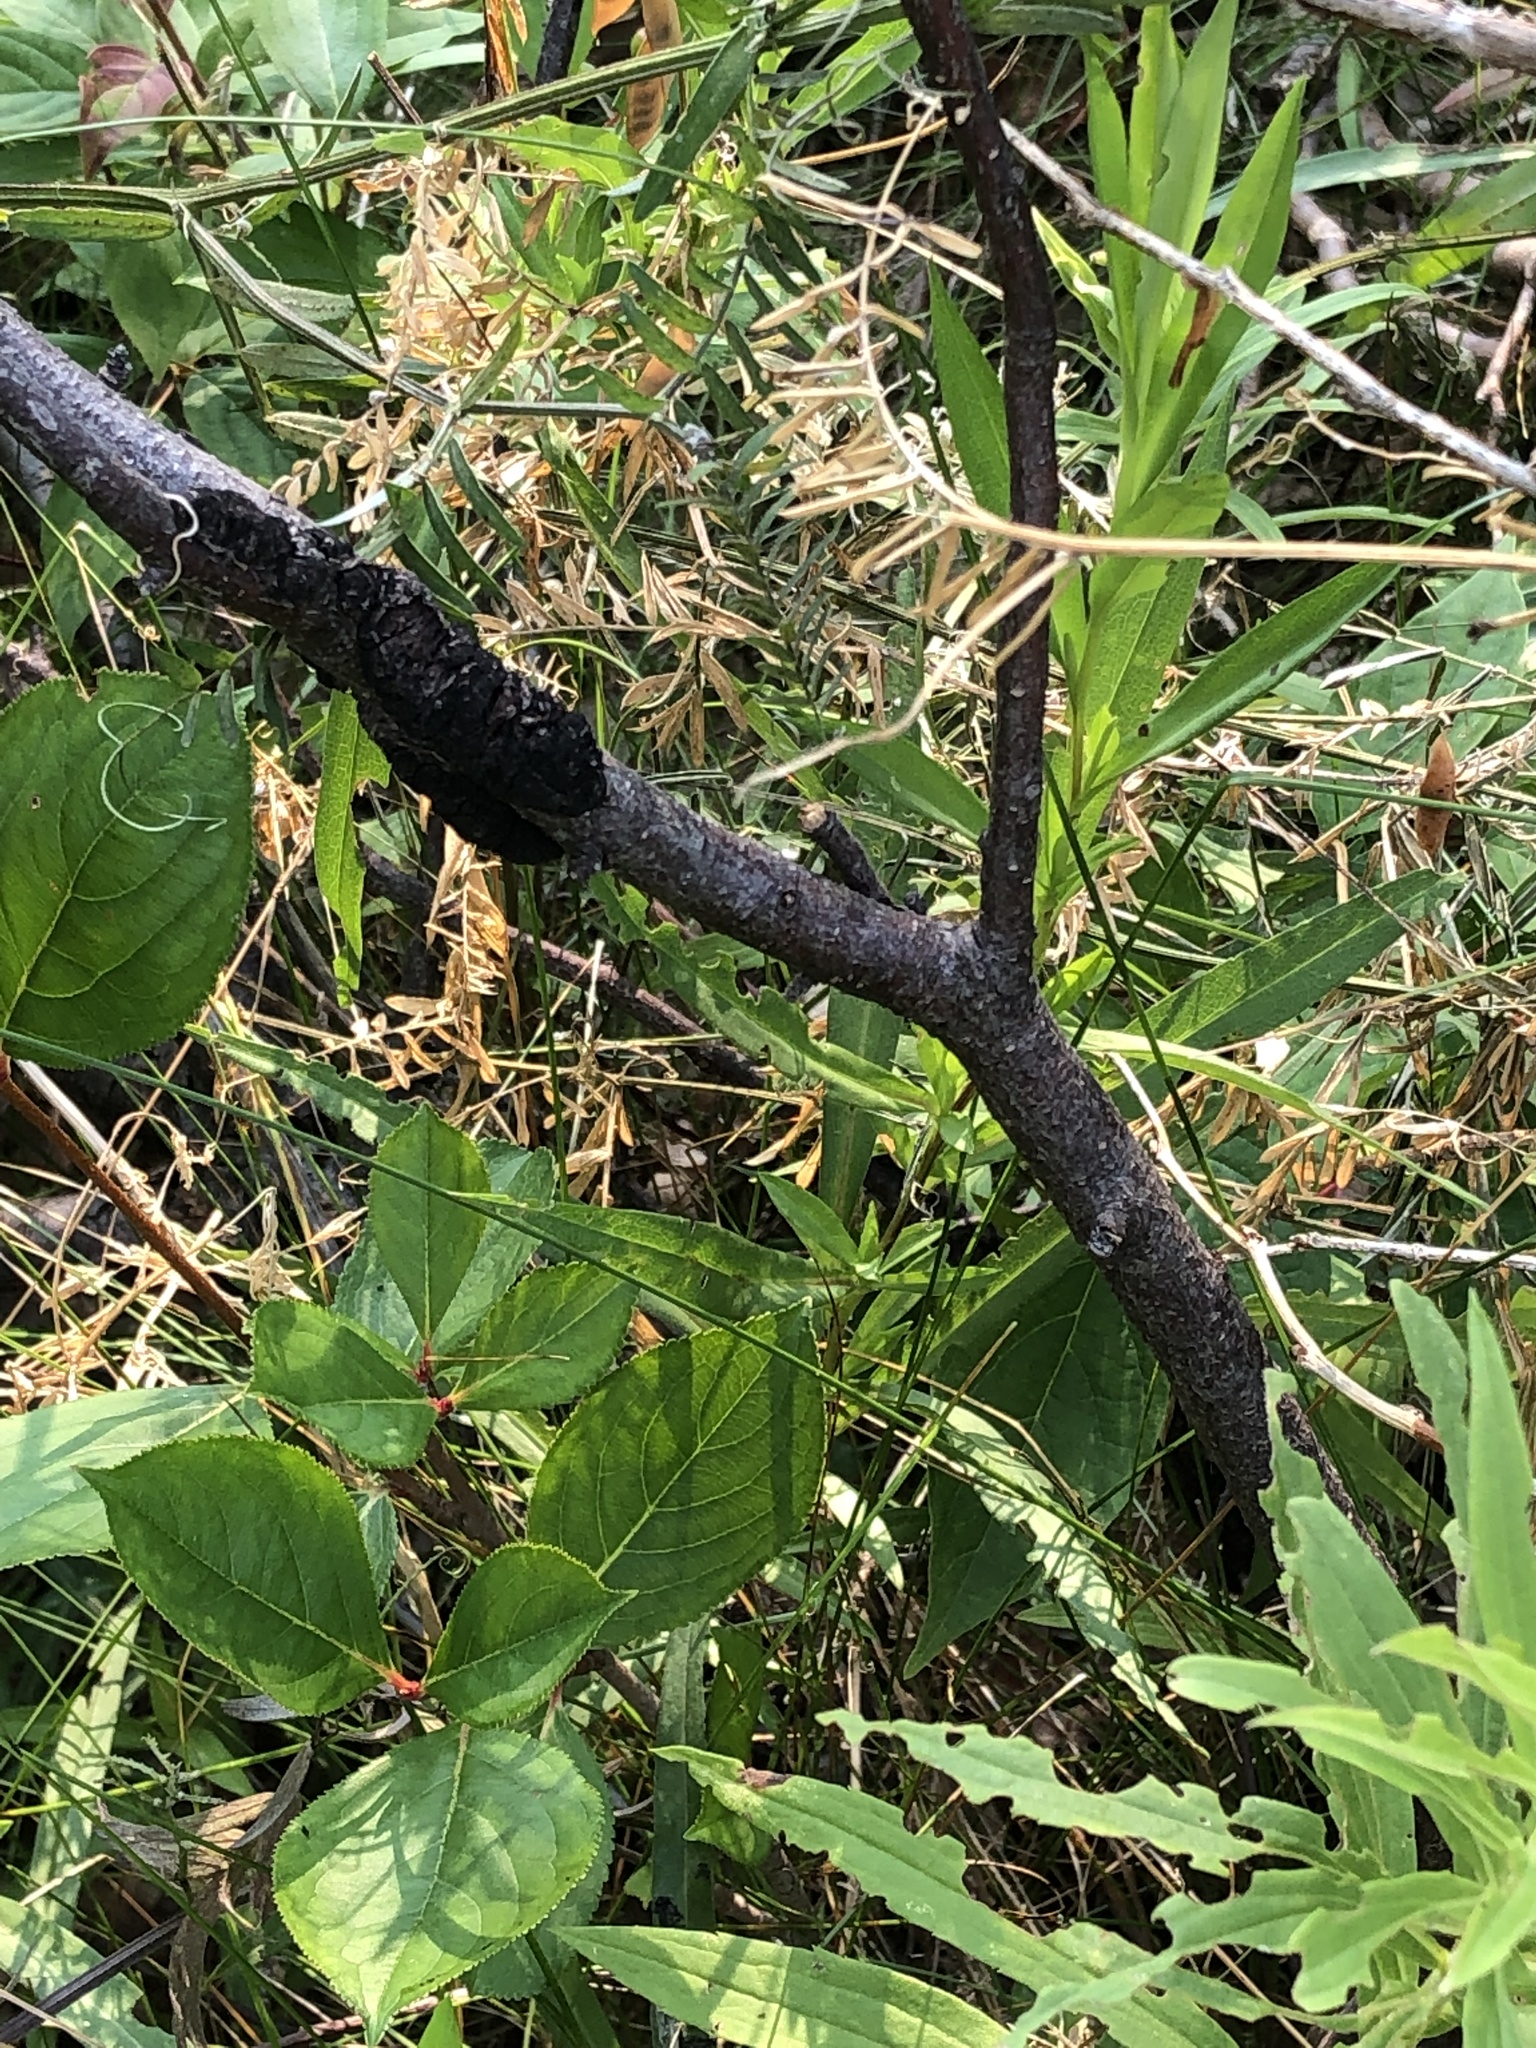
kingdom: Fungi
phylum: Ascomycota
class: Dothideomycetes
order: Venturiales
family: Venturiaceae
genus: Apiosporina
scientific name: Apiosporina morbosa
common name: Black knot
